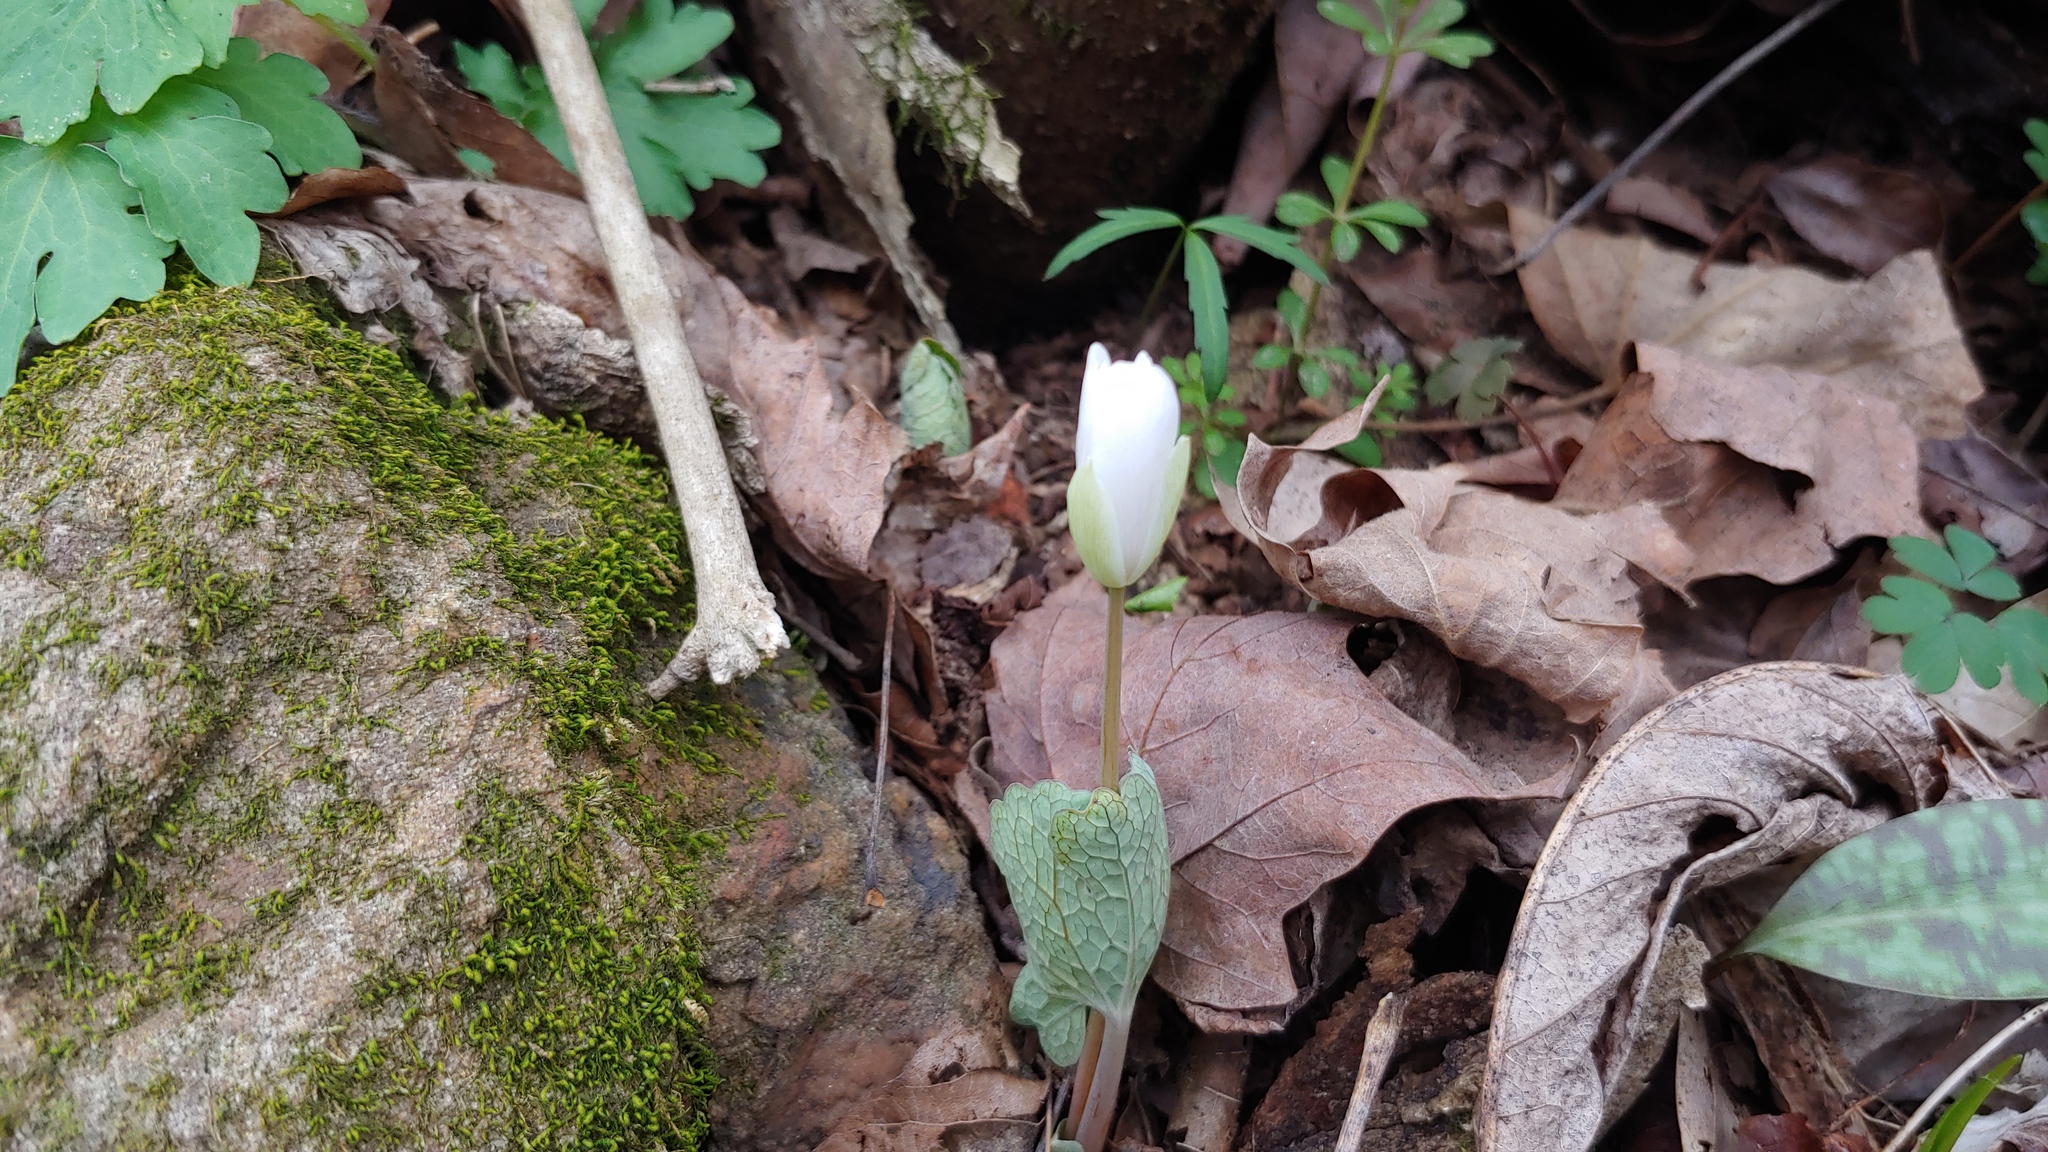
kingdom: Plantae
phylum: Tracheophyta
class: Magnoliopsida
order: Ranunculales
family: Papaveraceae
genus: Sanguinaria
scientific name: Sanguinaria canadensis
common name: Bloodroot
